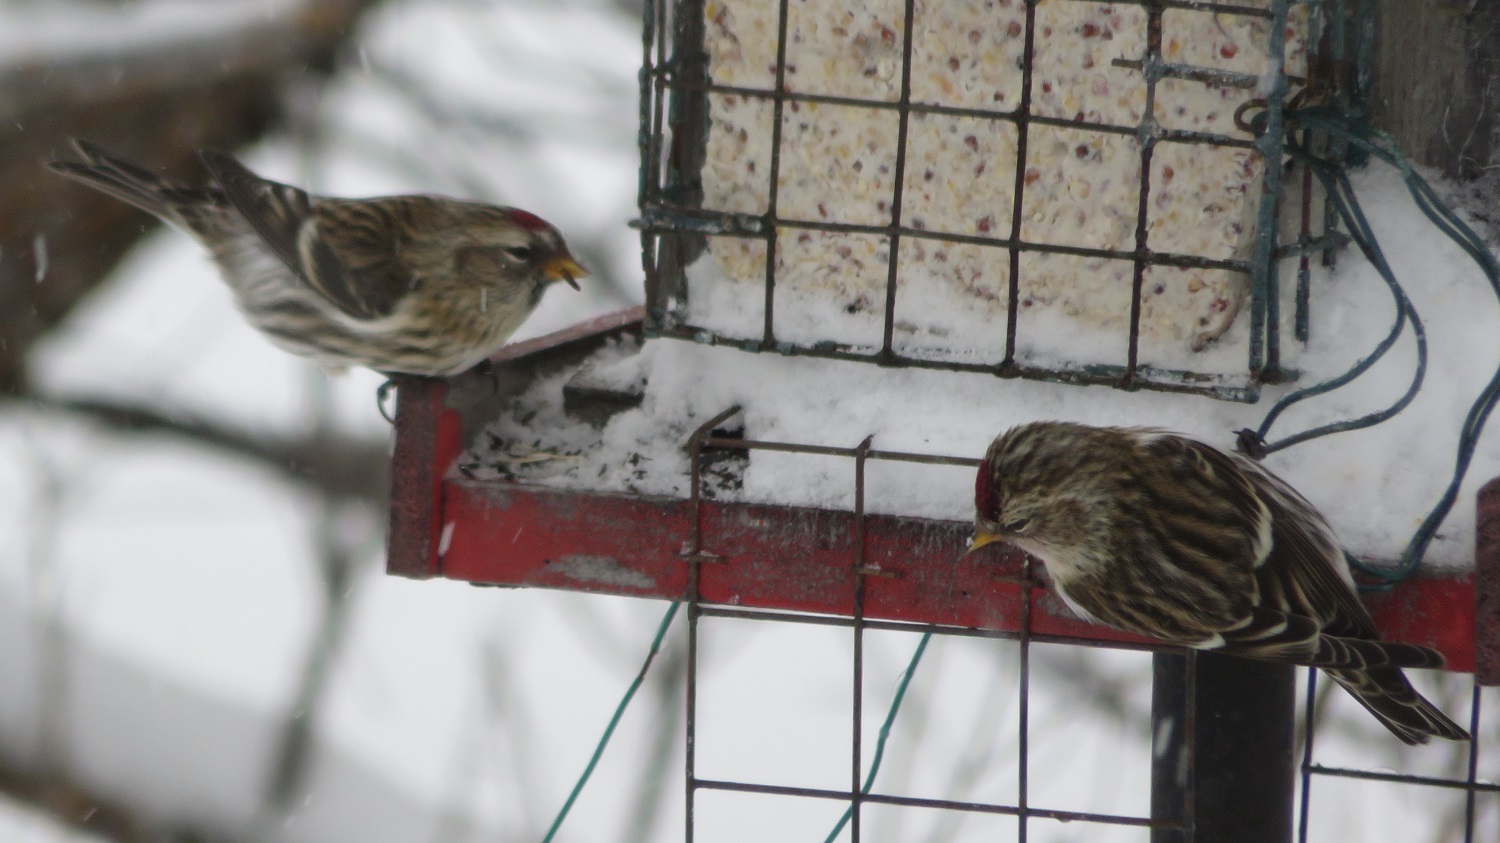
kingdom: Animalia
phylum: Chordata
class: Aves
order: Passeriformes
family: Fringillidae
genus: Acanthis
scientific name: Acanthis flammea
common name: Common redpoll
